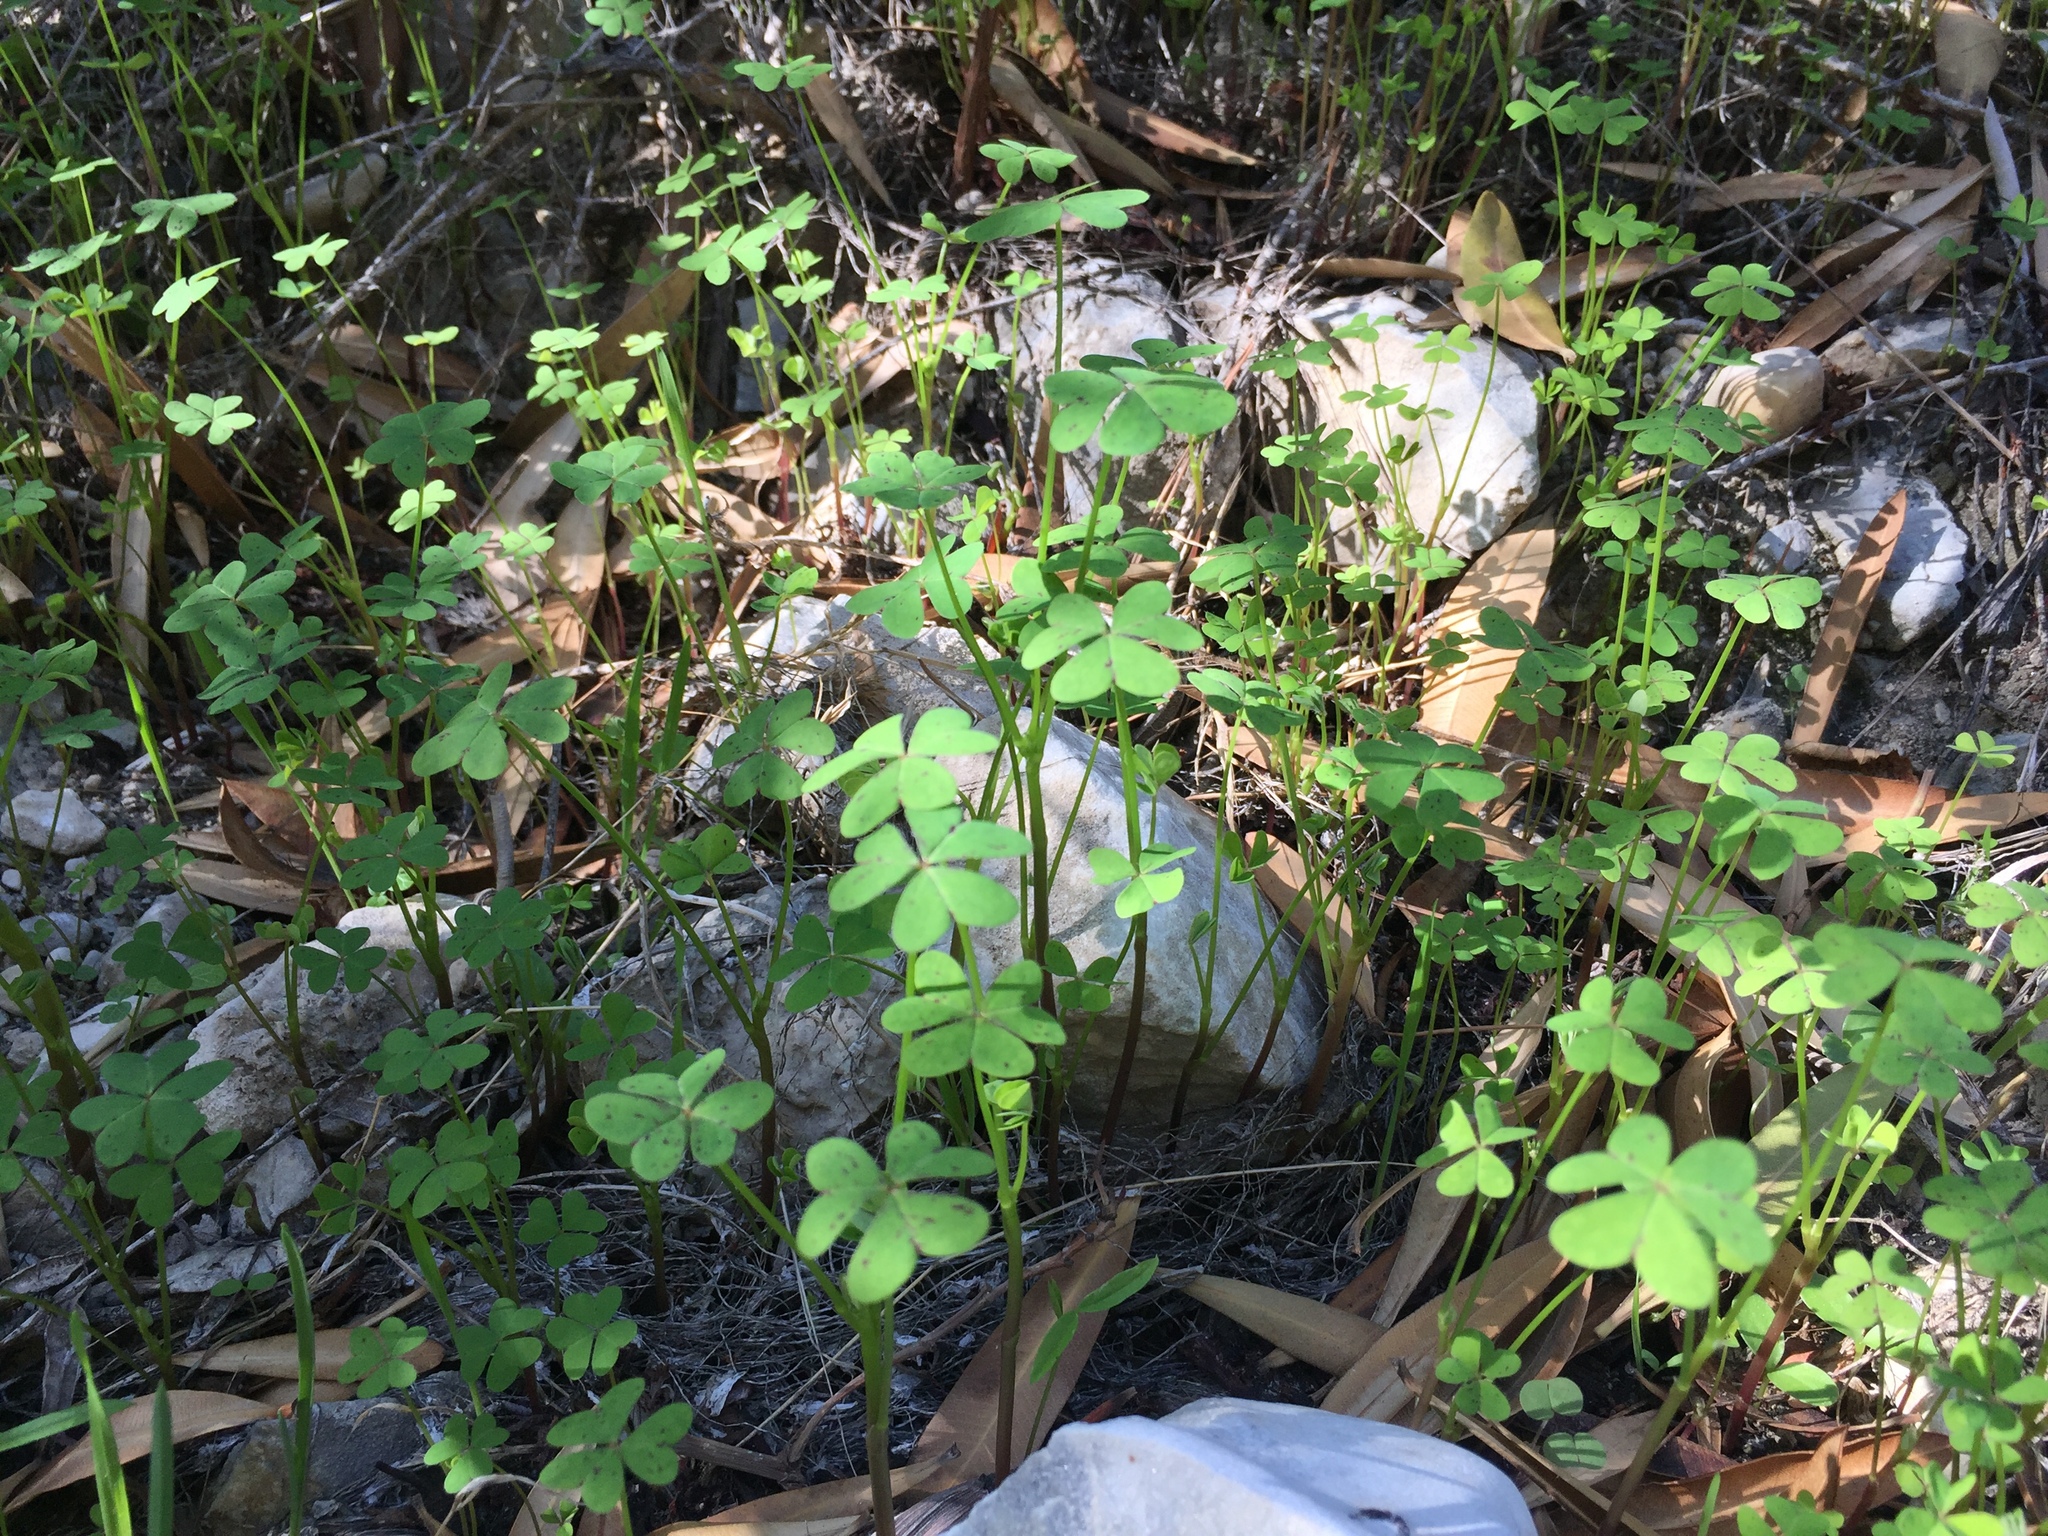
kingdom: Plantae
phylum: Tracheophyta
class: Magnoliopsida
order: Oxalidales
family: Oxalidaceae
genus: Oxalis
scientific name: Oxalis pes-caprae
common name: Bermuda-buttercup
